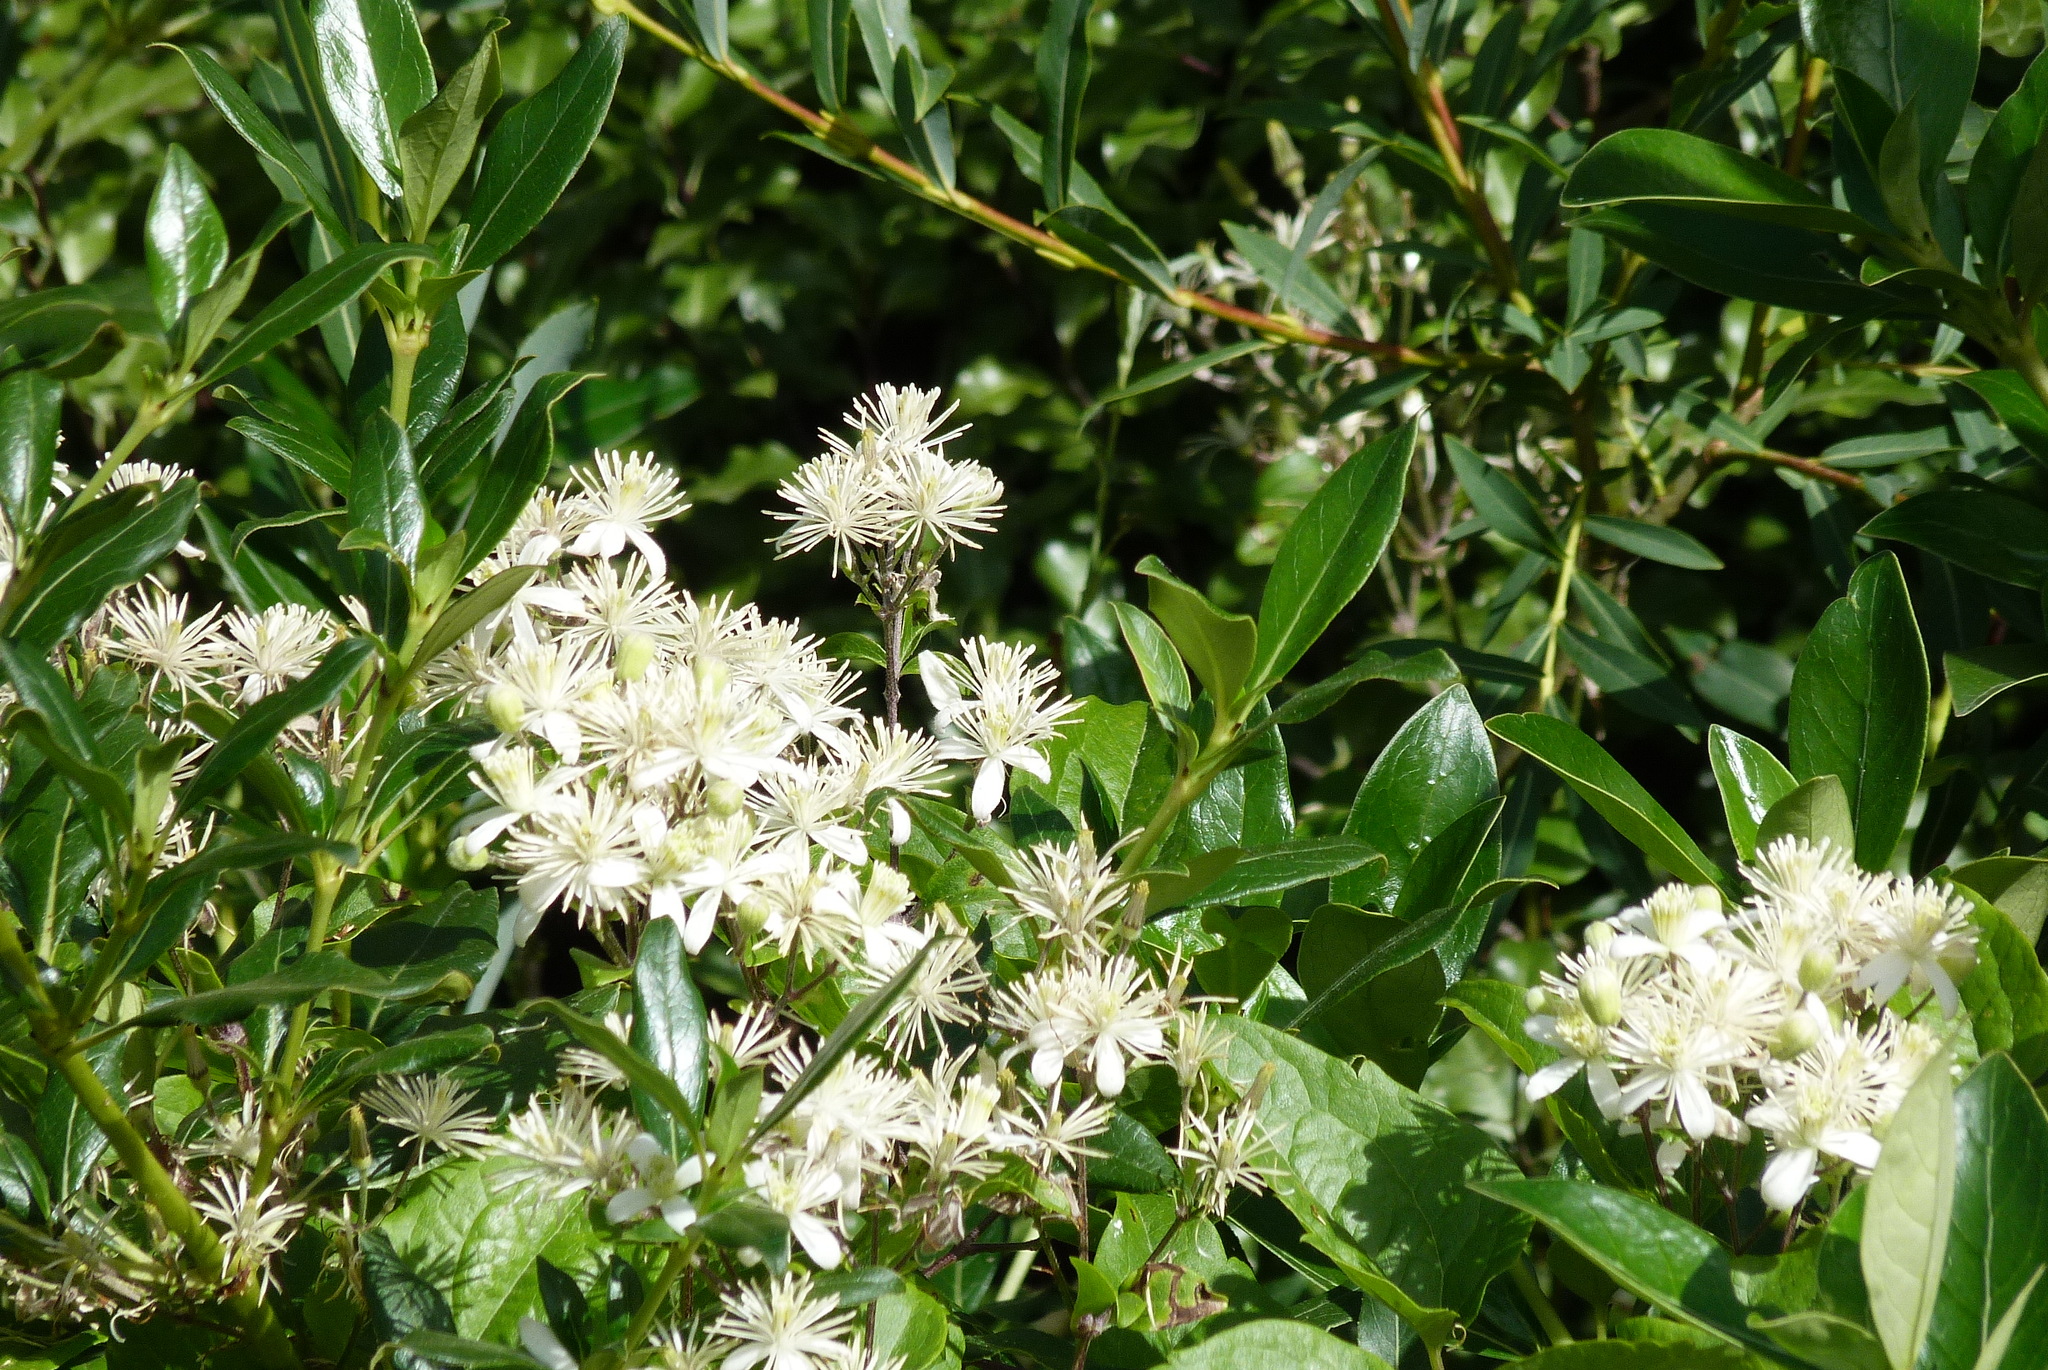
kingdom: Plantae
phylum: Tracheophyta
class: Magnoliopsida
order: Ranunculales
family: Ranunculaceae
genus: Clematis
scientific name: Clematis vitalba
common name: Evergreen clematis
